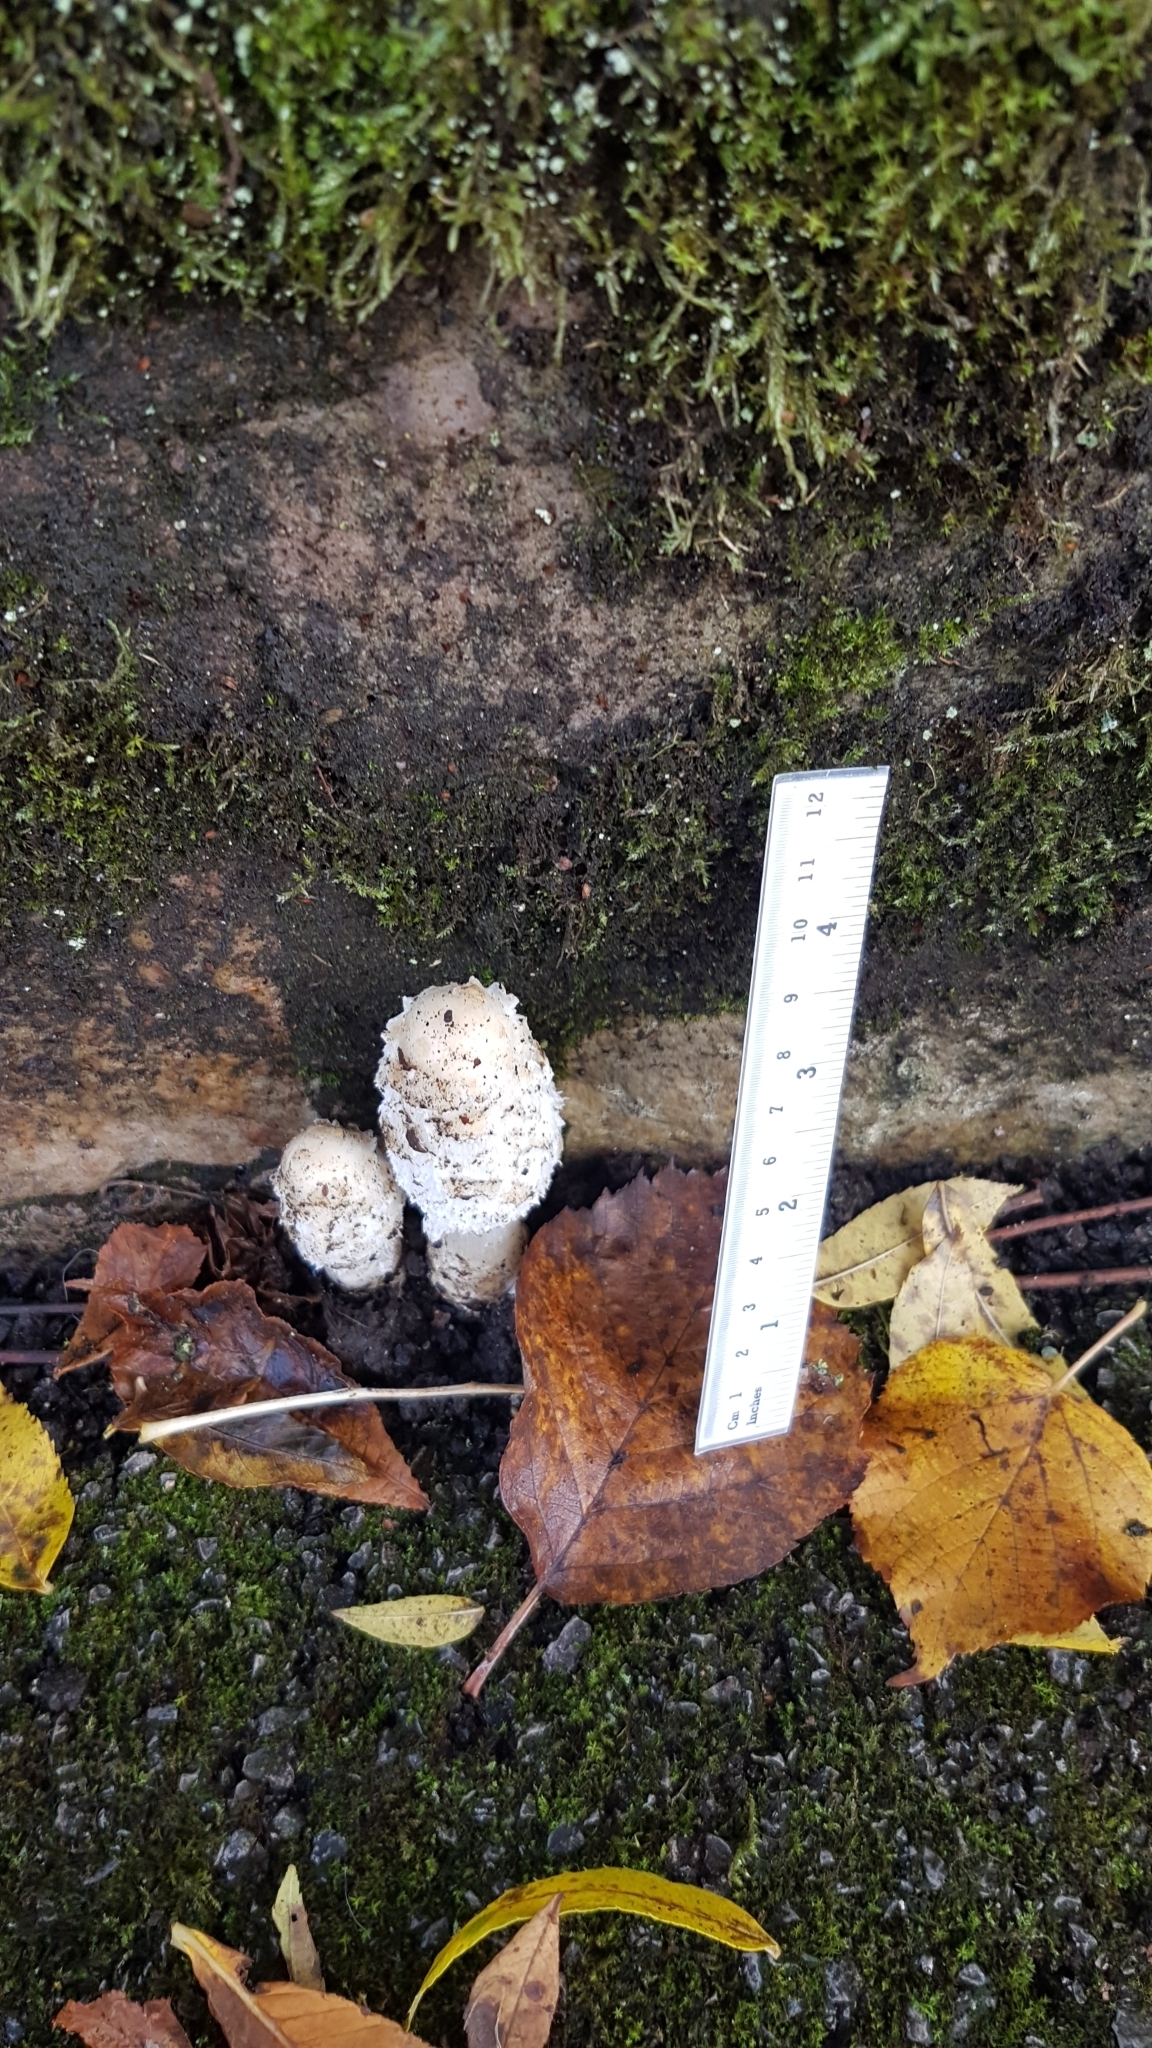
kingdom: Fungi
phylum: Basidiomycota
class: Agaricomycetes
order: Agaricales
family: Agaricaceae
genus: Coprinus
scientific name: Coprinus comatus
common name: Lawyer's wig
